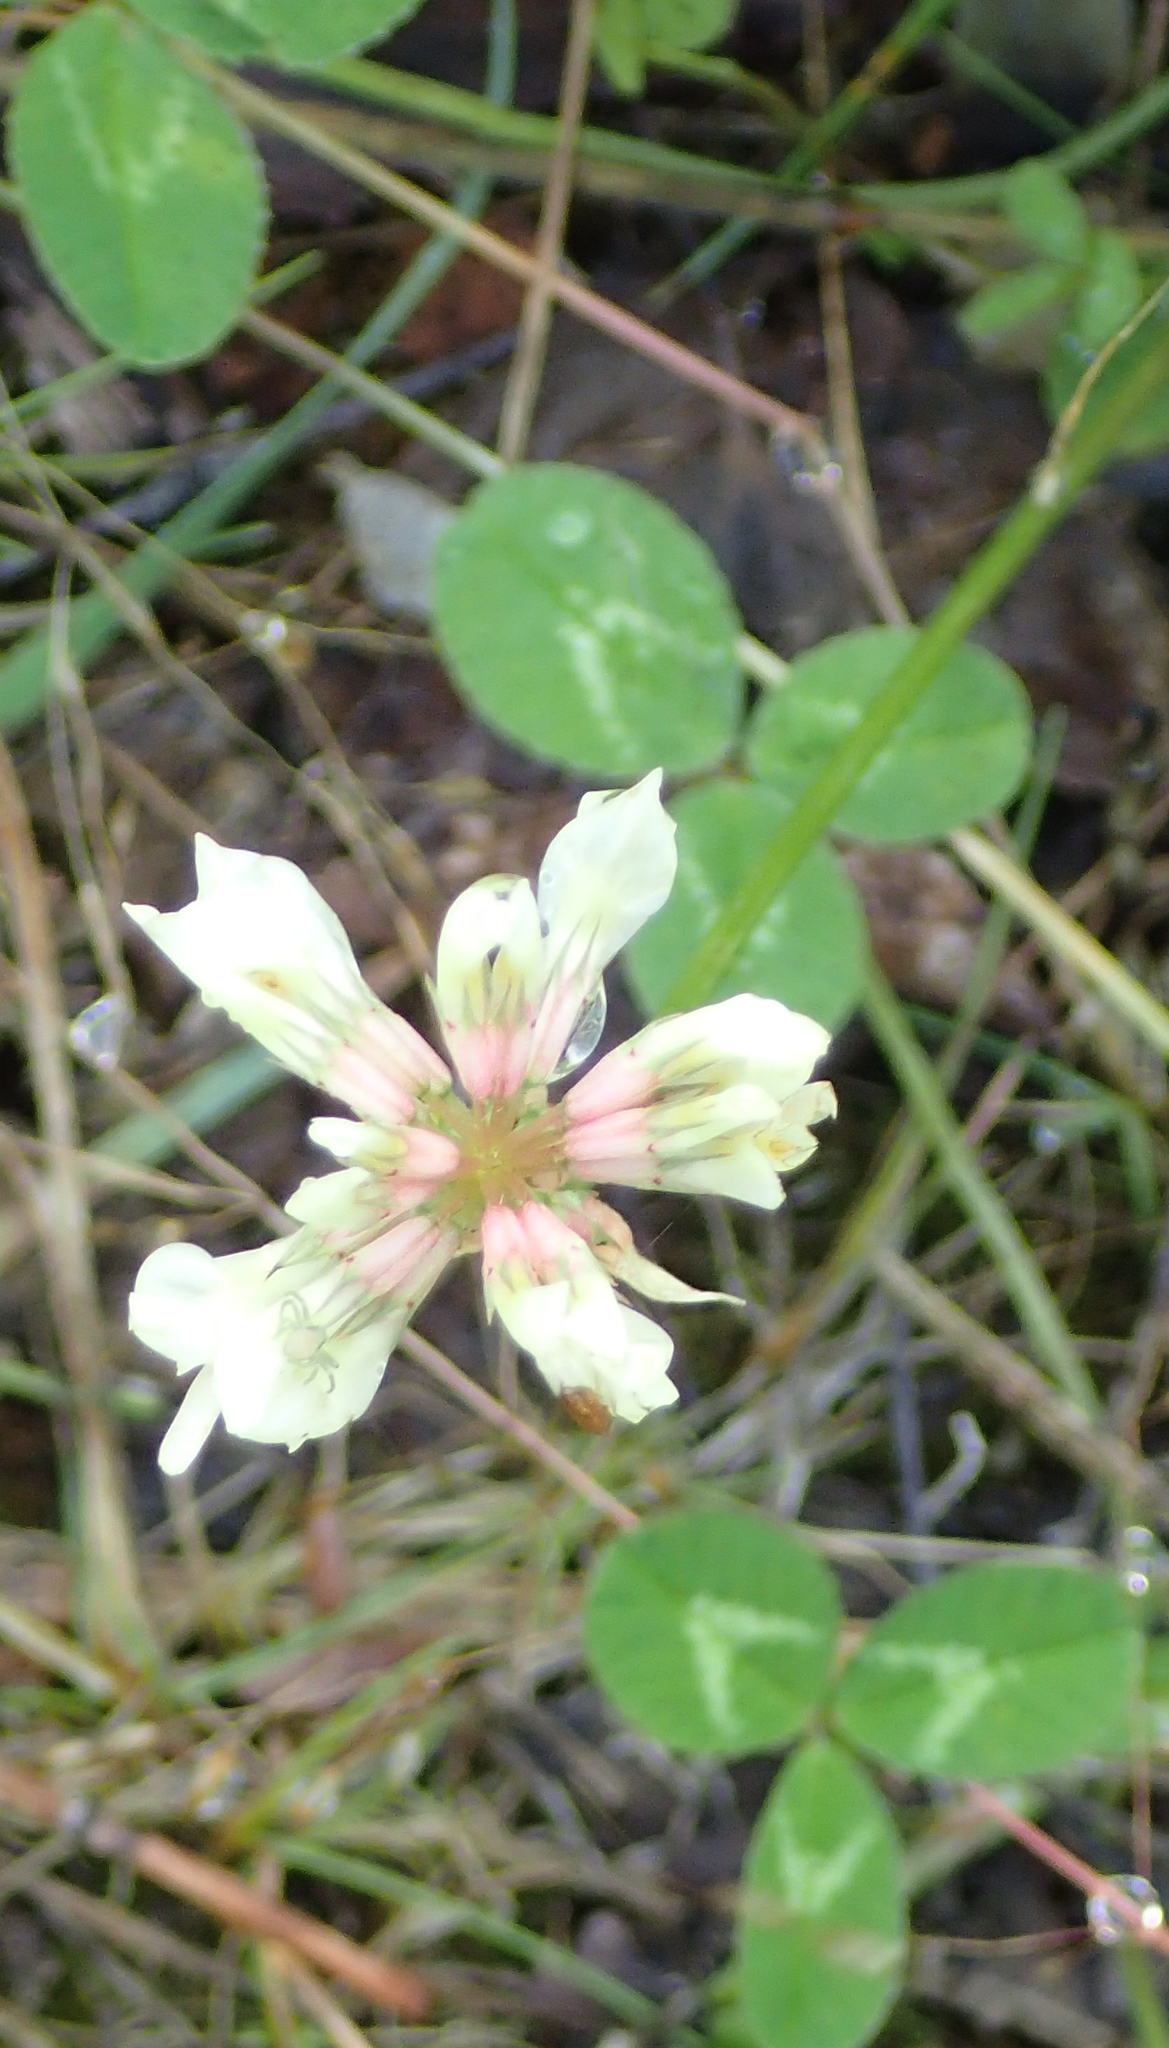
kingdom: Plantae
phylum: Tracheophyta
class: Magnoliopsida
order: Fabales
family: Fabaceae
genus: Trifolium
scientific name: Trifolium repens
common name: White clover
